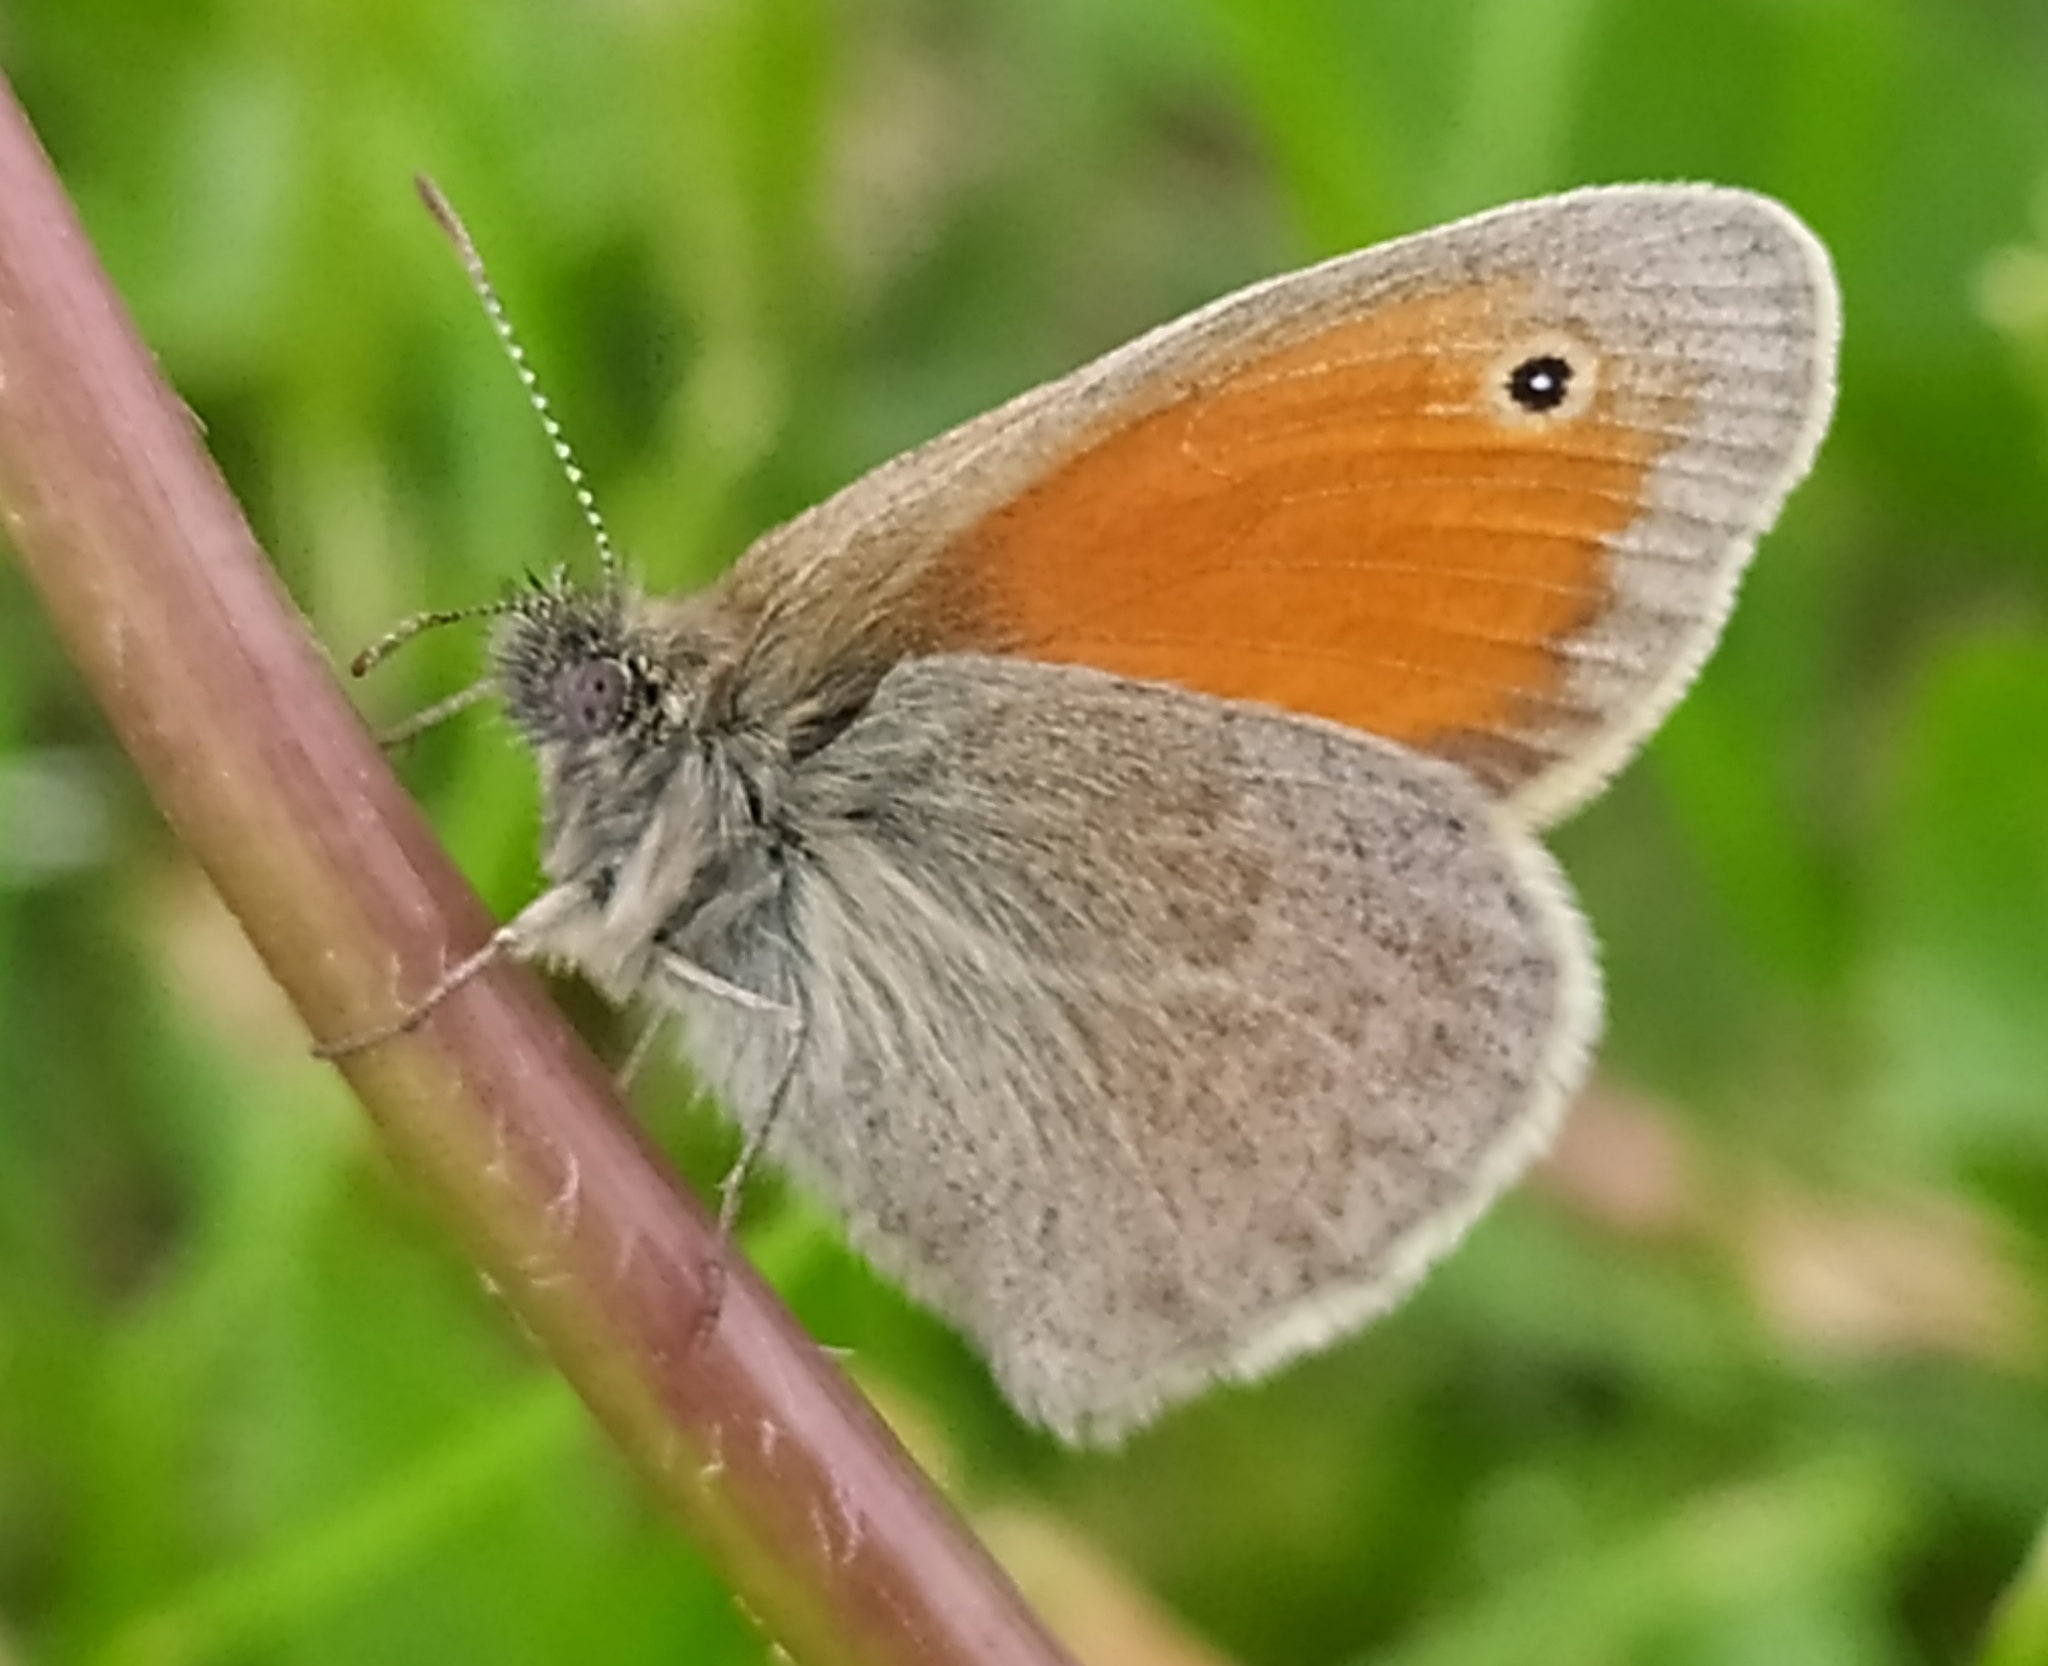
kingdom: Animalia
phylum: Arthropoda
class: Insecta
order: Lepidoptera
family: Nymphalidae
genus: Coenonympha
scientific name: Coenonympha pamphilus
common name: Small heath
